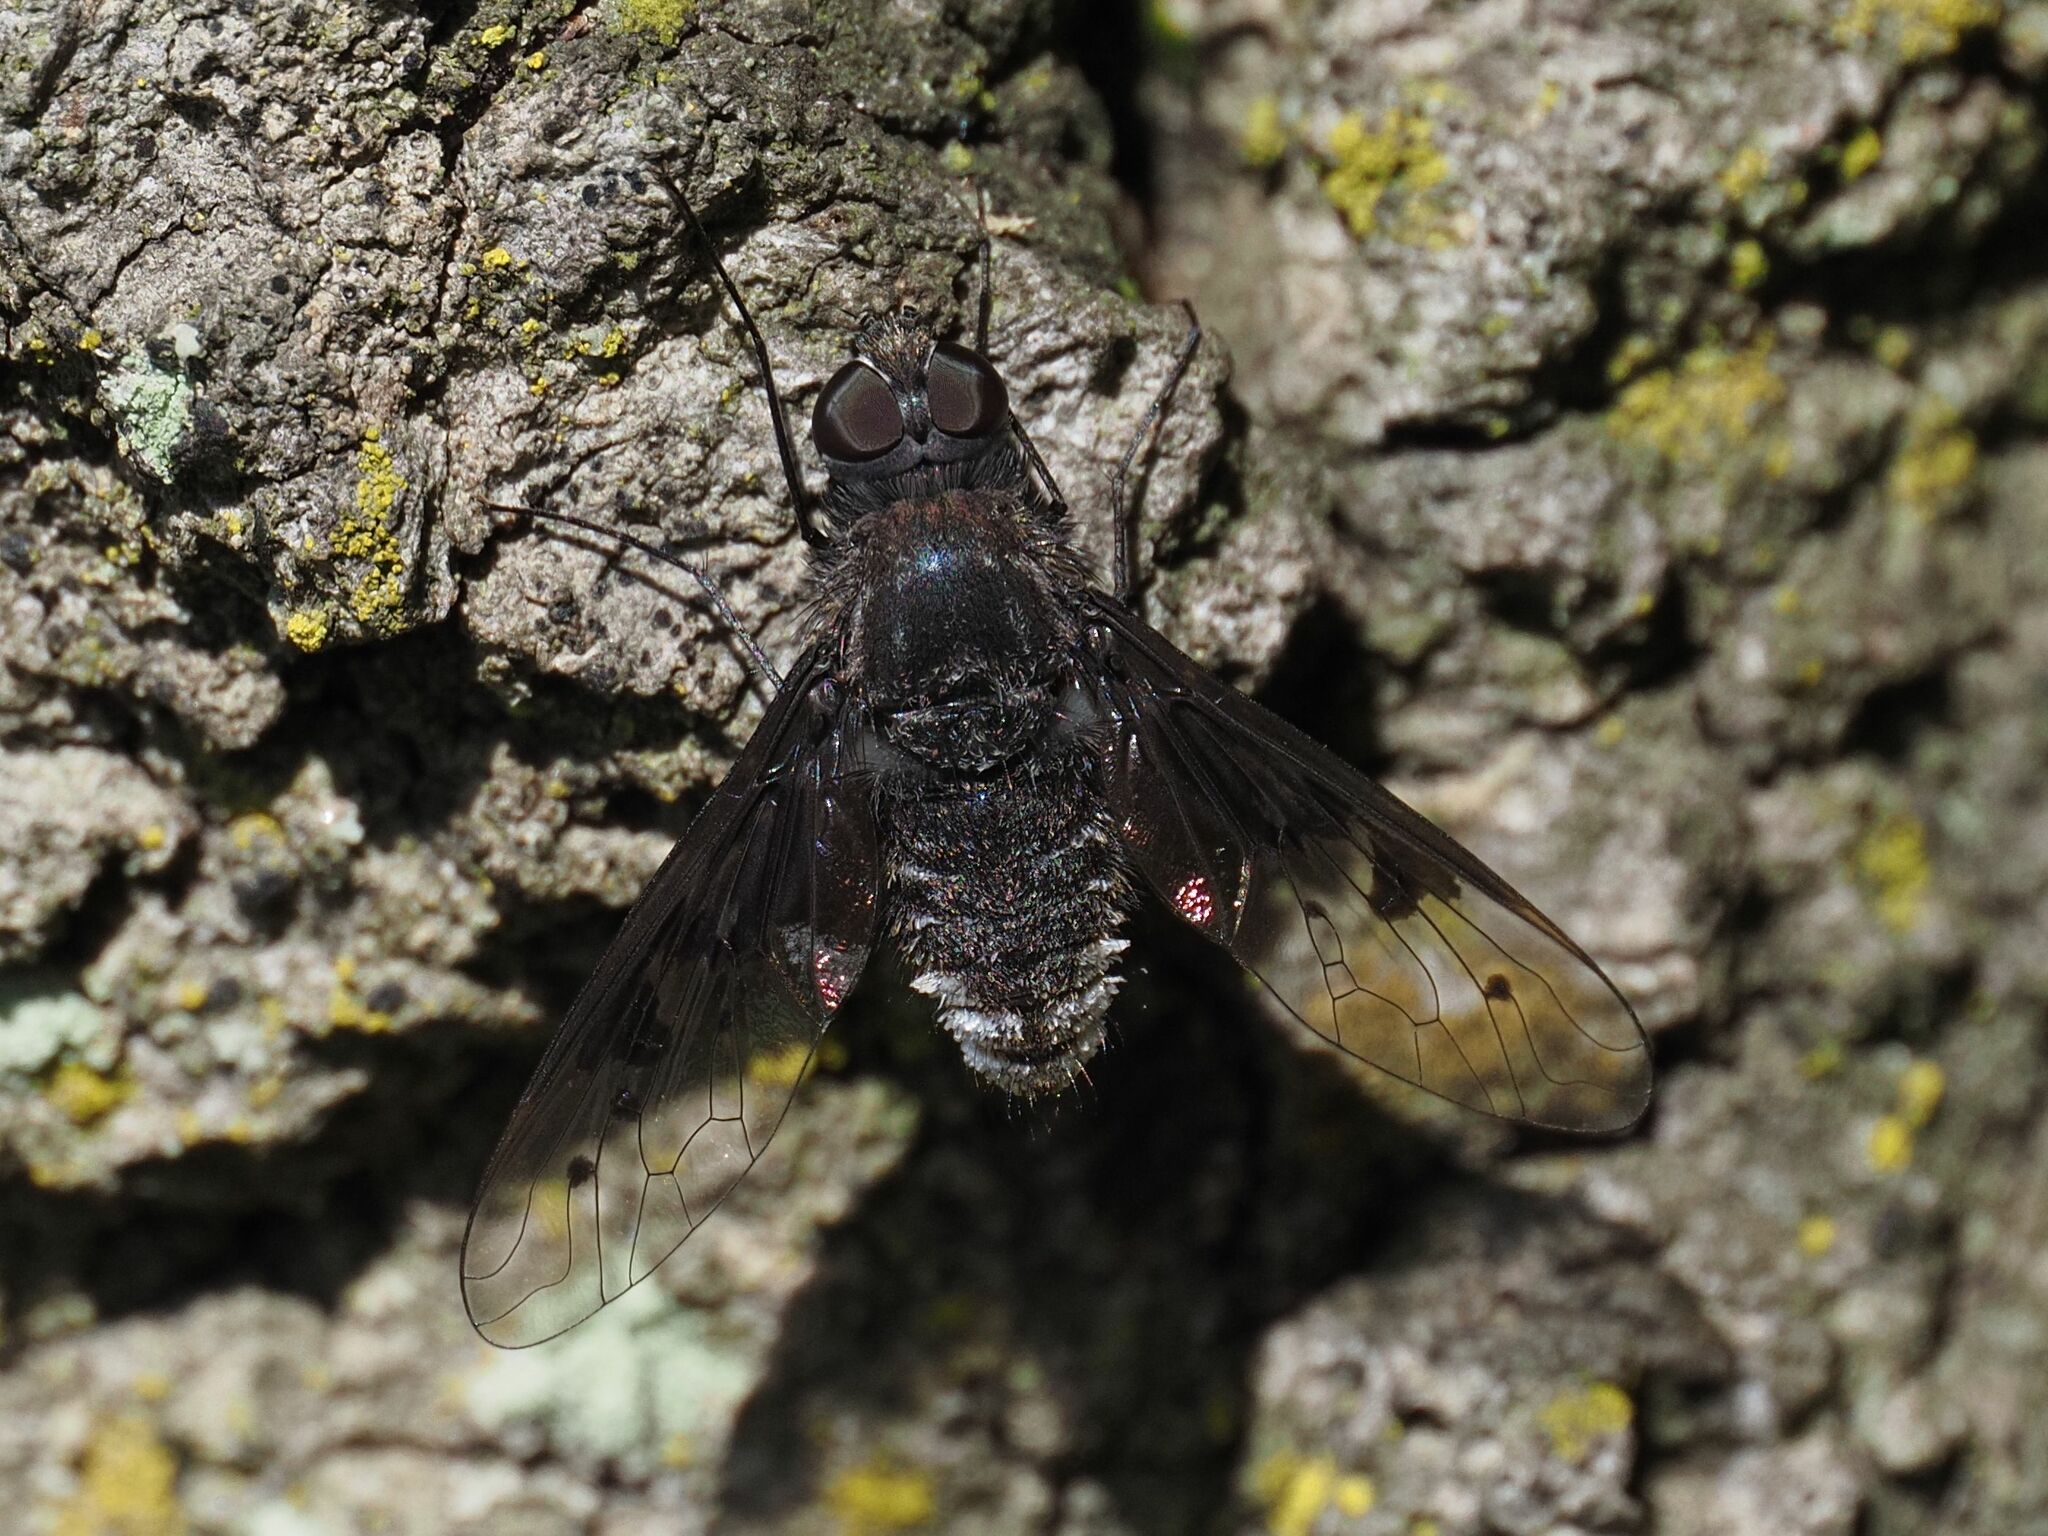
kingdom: Animalia
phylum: Arthropoda
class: Insecta
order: Diptera
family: Bombyliidae
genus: Anthrax
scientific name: Anthrax trifasciatus
